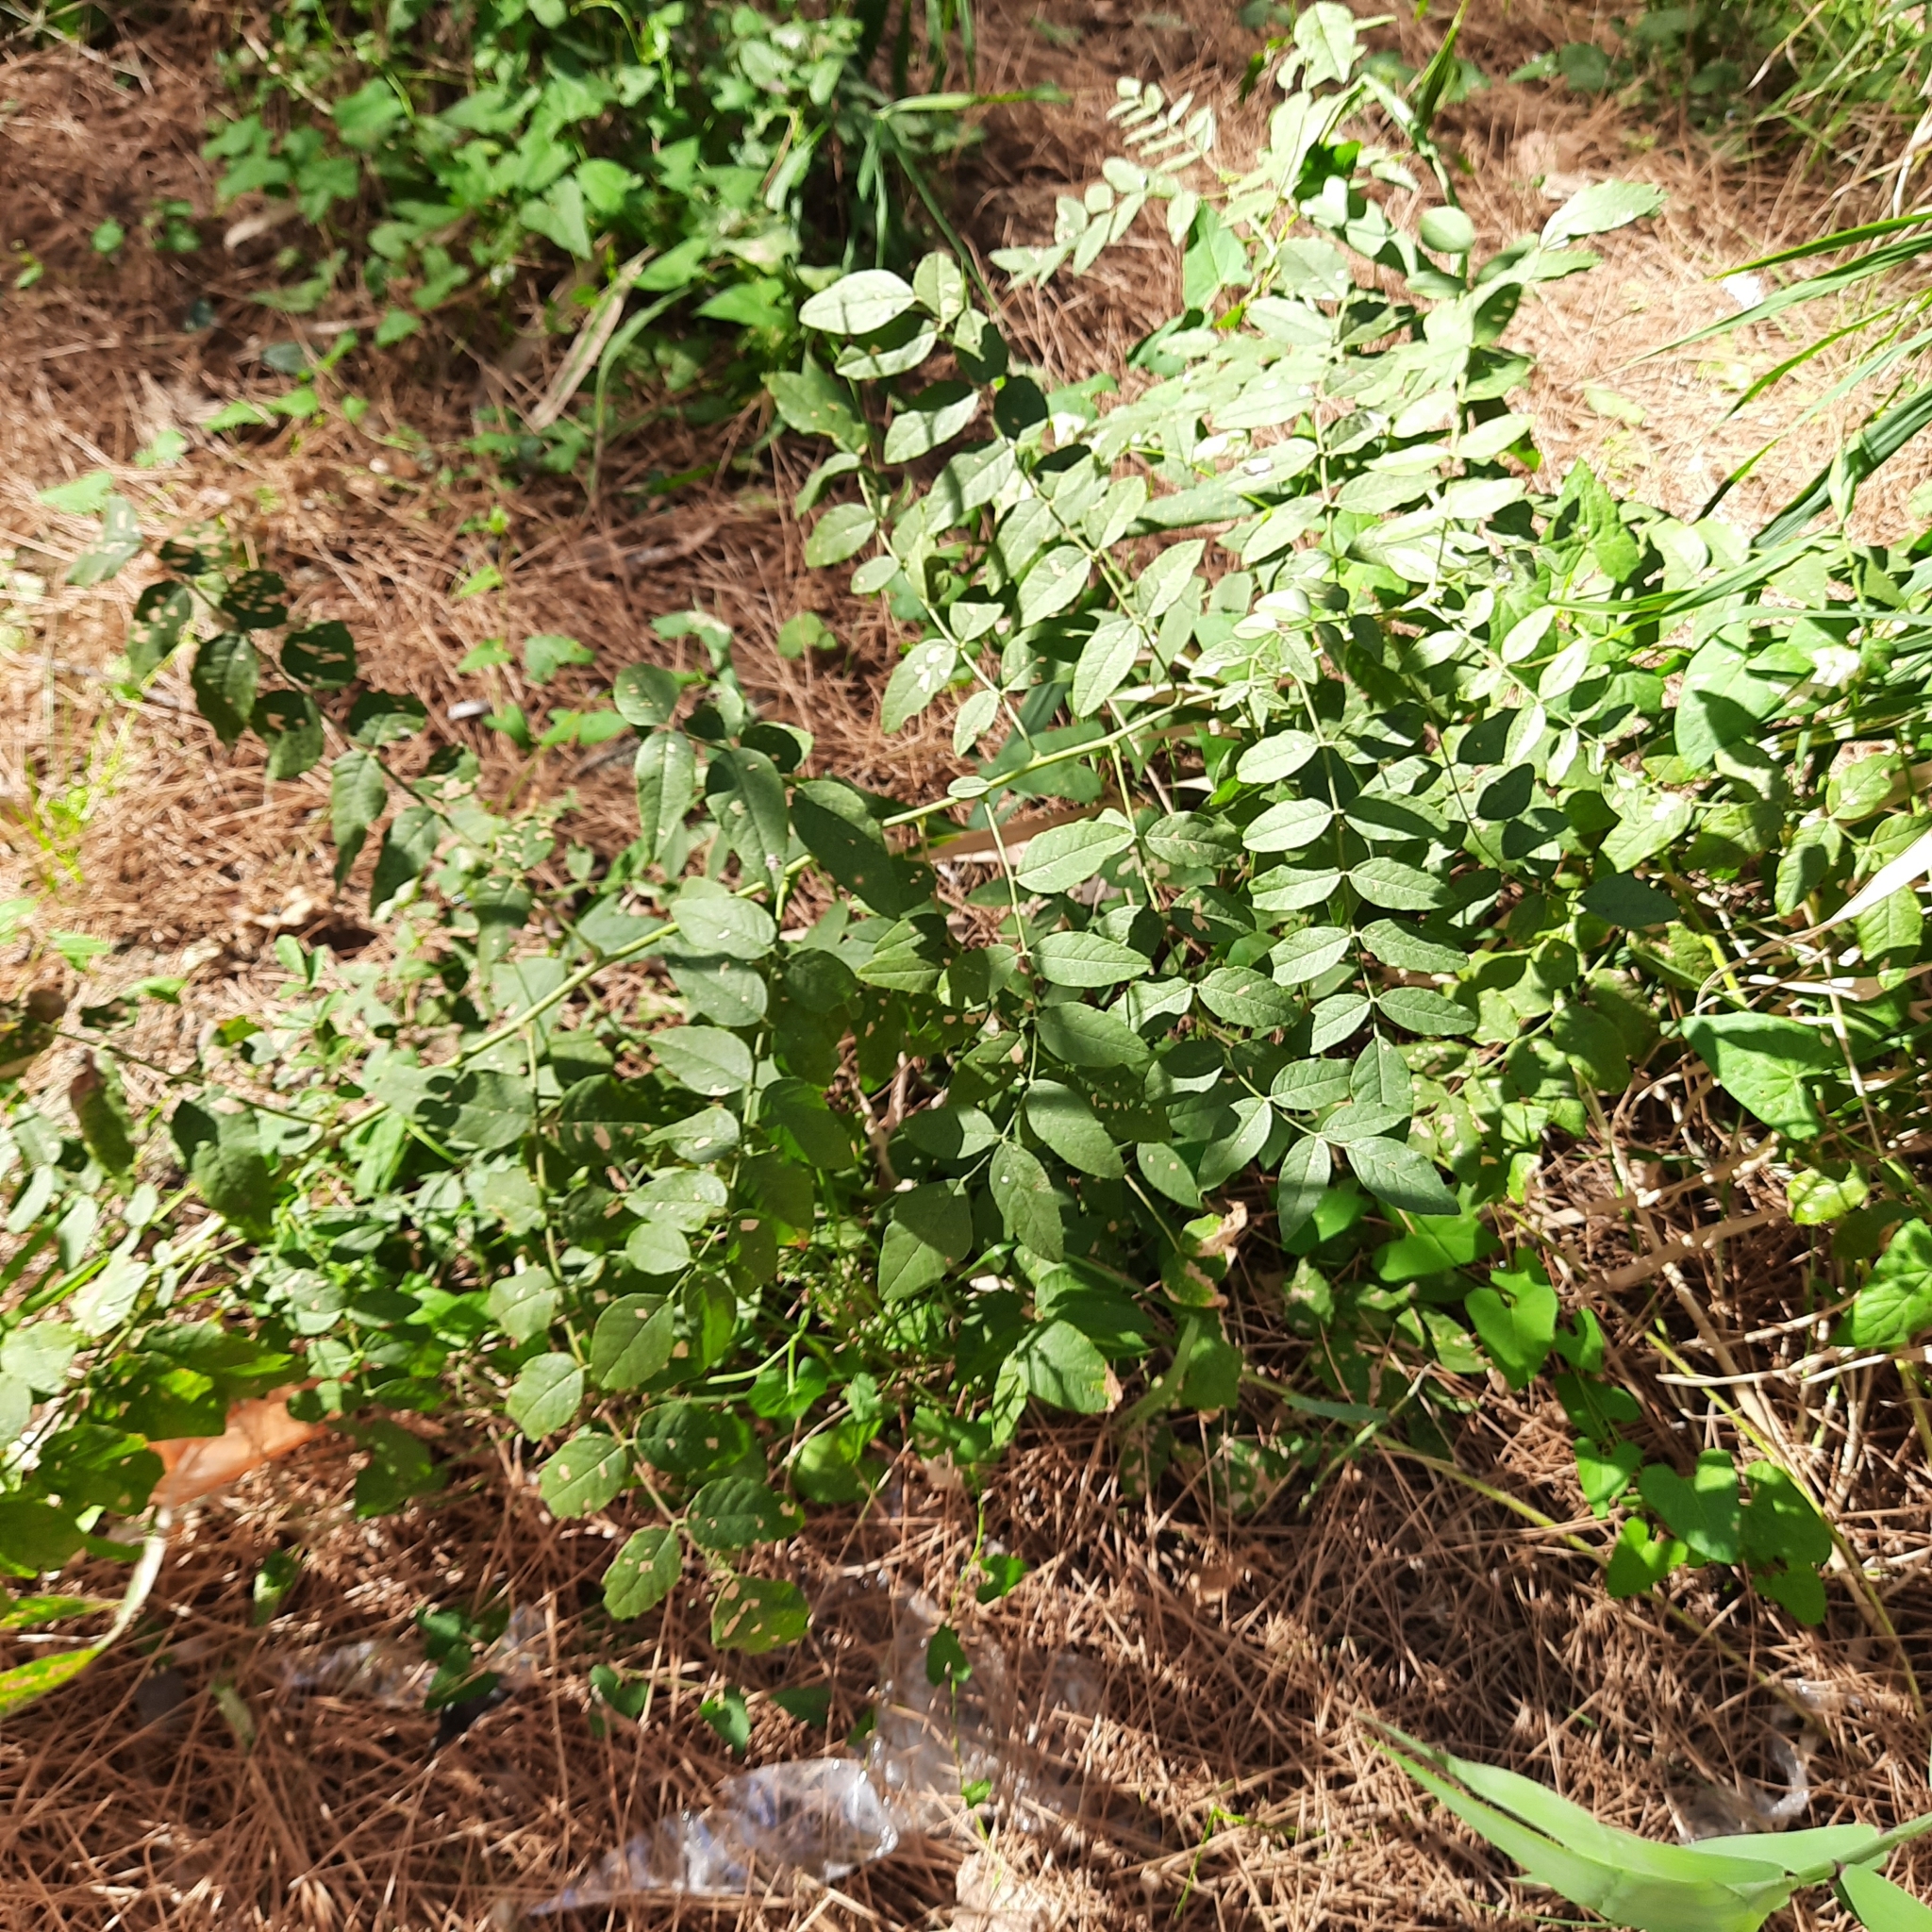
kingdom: Plantae
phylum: Tracheophyta
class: Magnoliopsida
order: Fabales
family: Fabaceae
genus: Glycyrrhiza
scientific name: Glycyrrhiza glabra
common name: Liquorice
